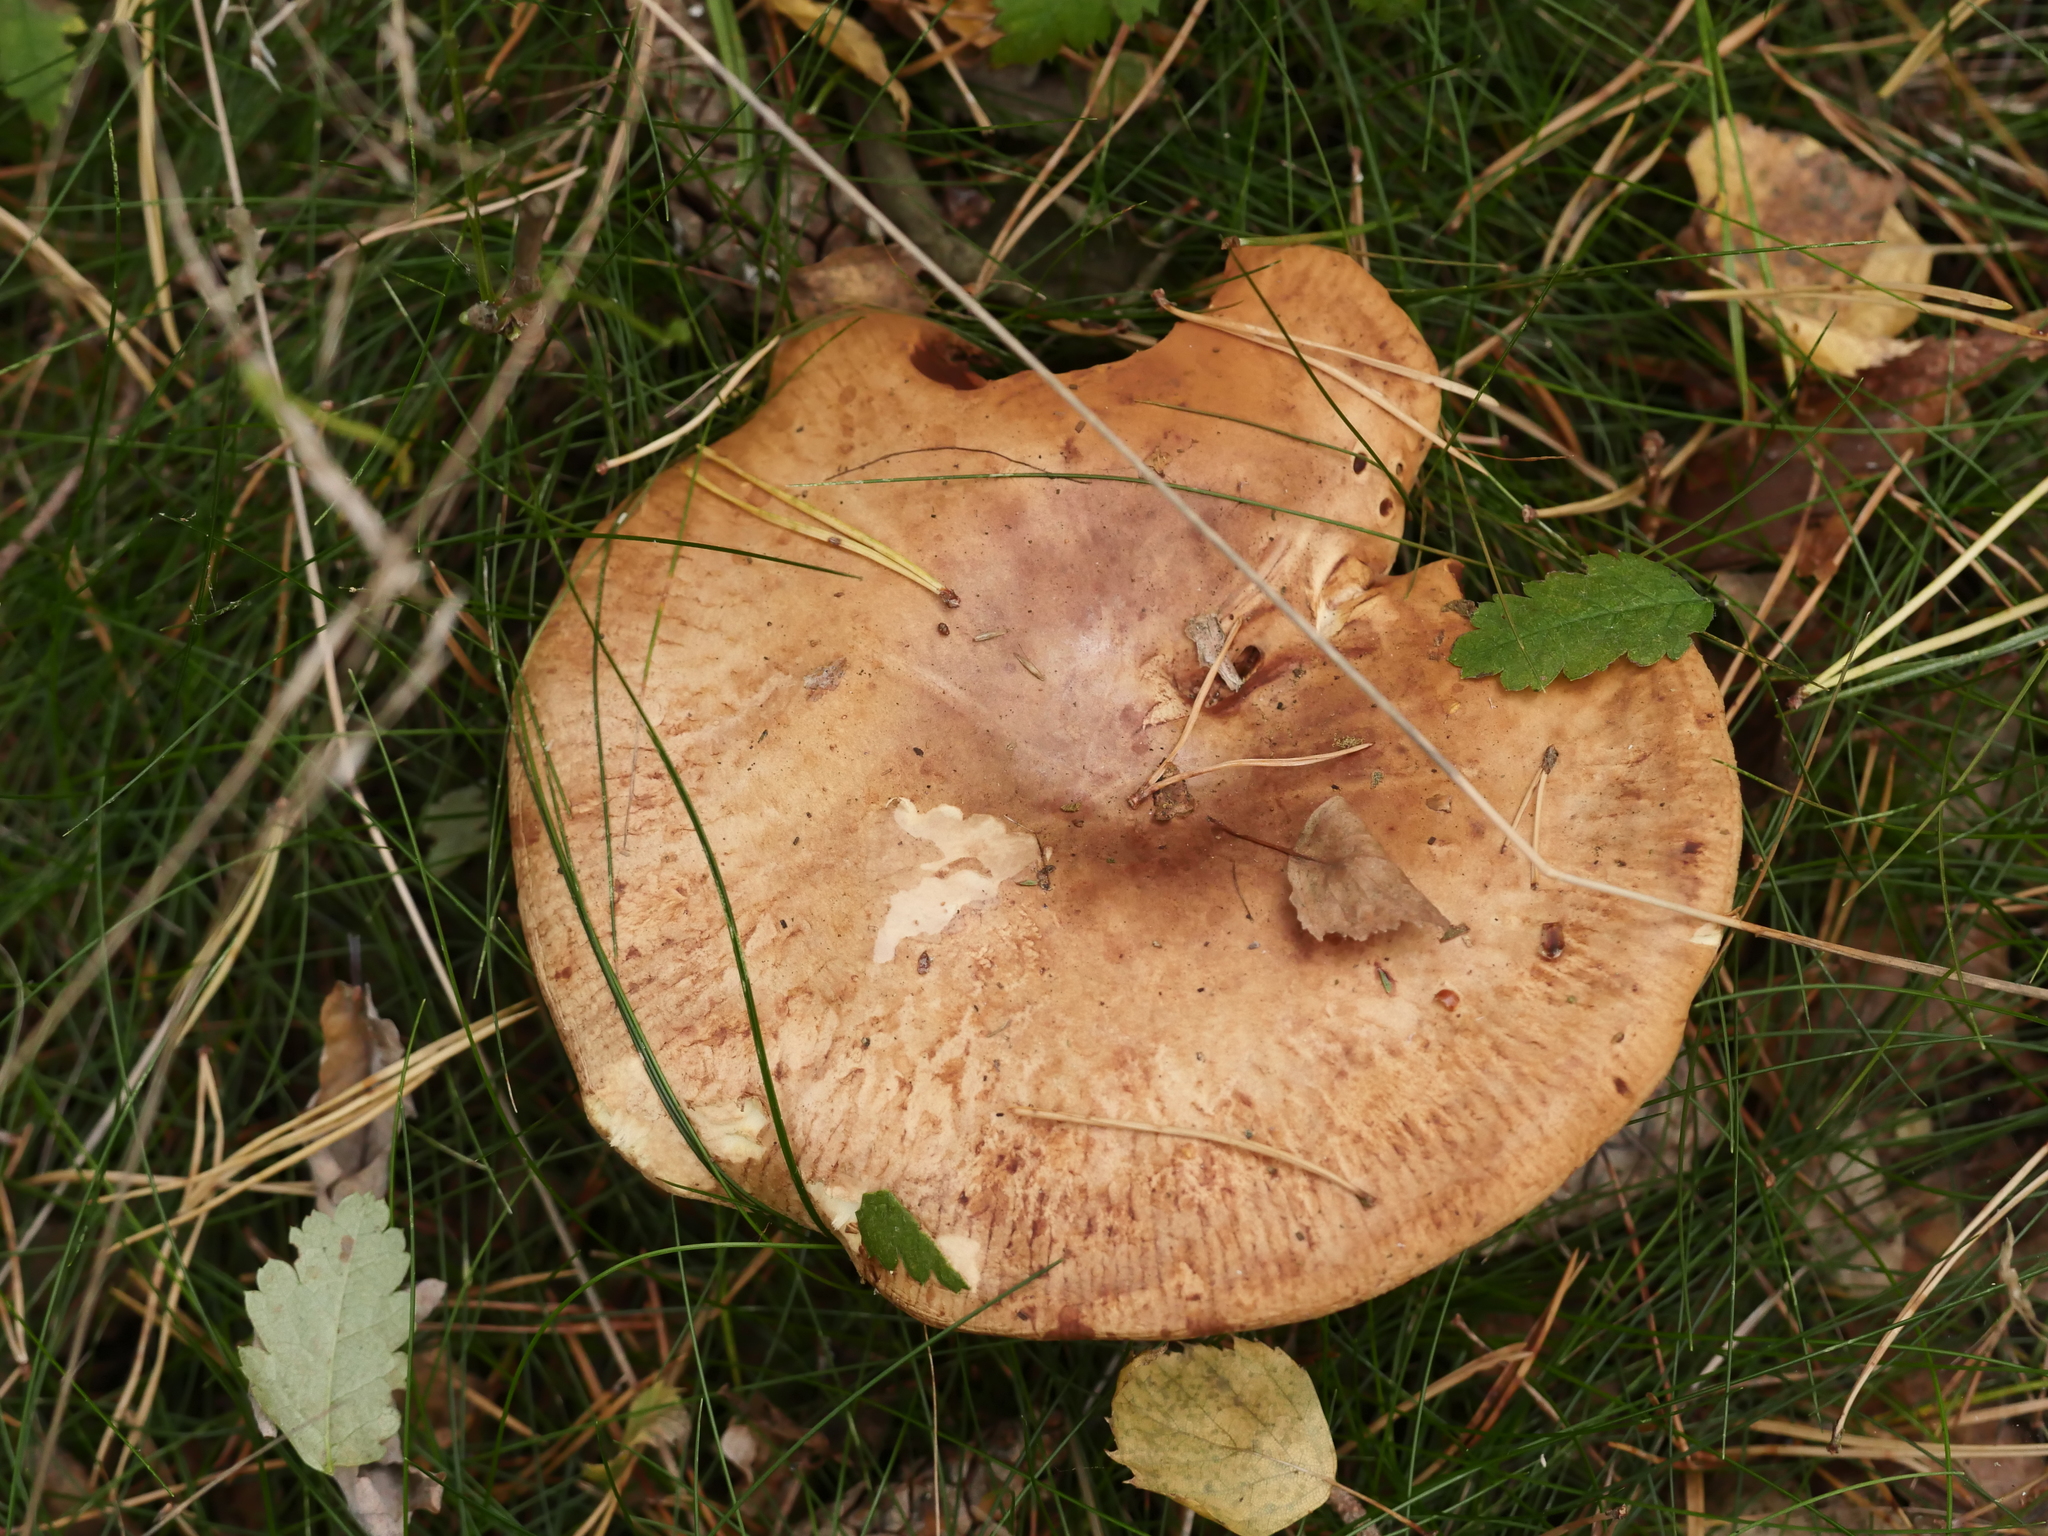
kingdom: Fungi
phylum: Basidiomycota
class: Agaricomycetes
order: Boletales
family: Paxillaceae
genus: Paxillus
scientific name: Paxillus involutus
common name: Brown roll rim
